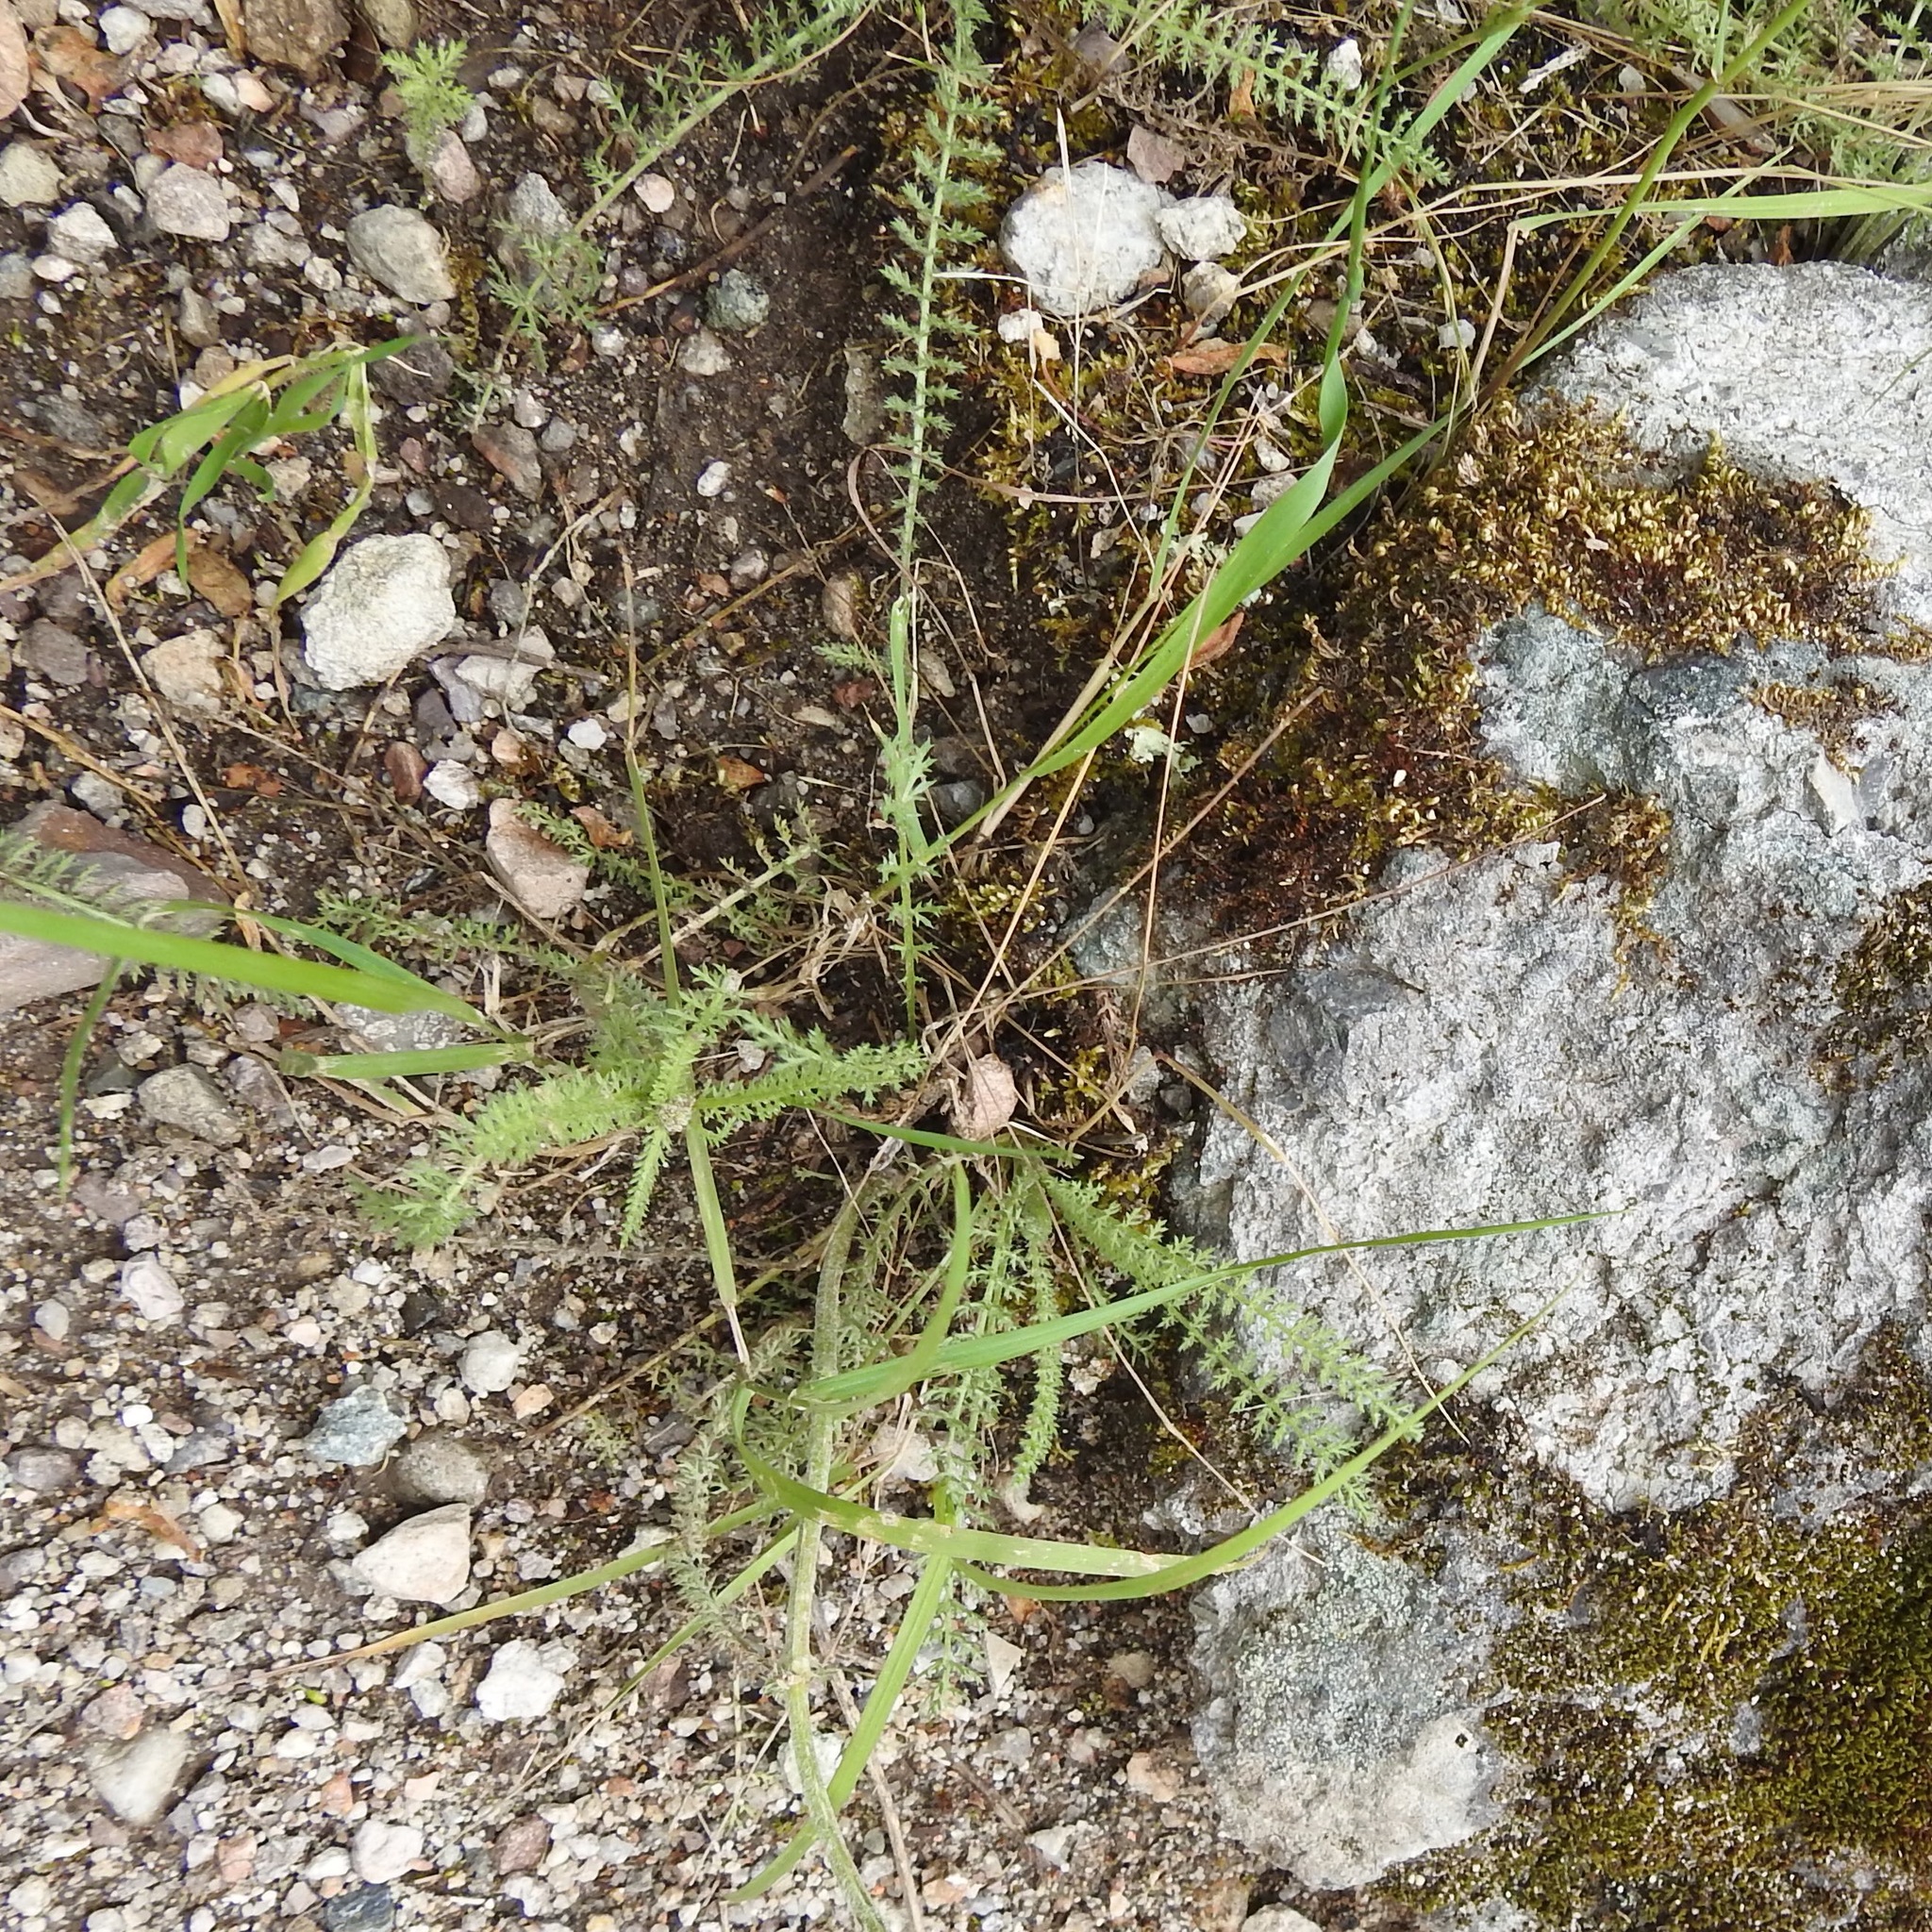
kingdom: Plantae
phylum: Tracheophyta
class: Magnoliopsida
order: Asterales
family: Asteraceae
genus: Achillea
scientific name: Achillea millefolium
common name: Yarrow
